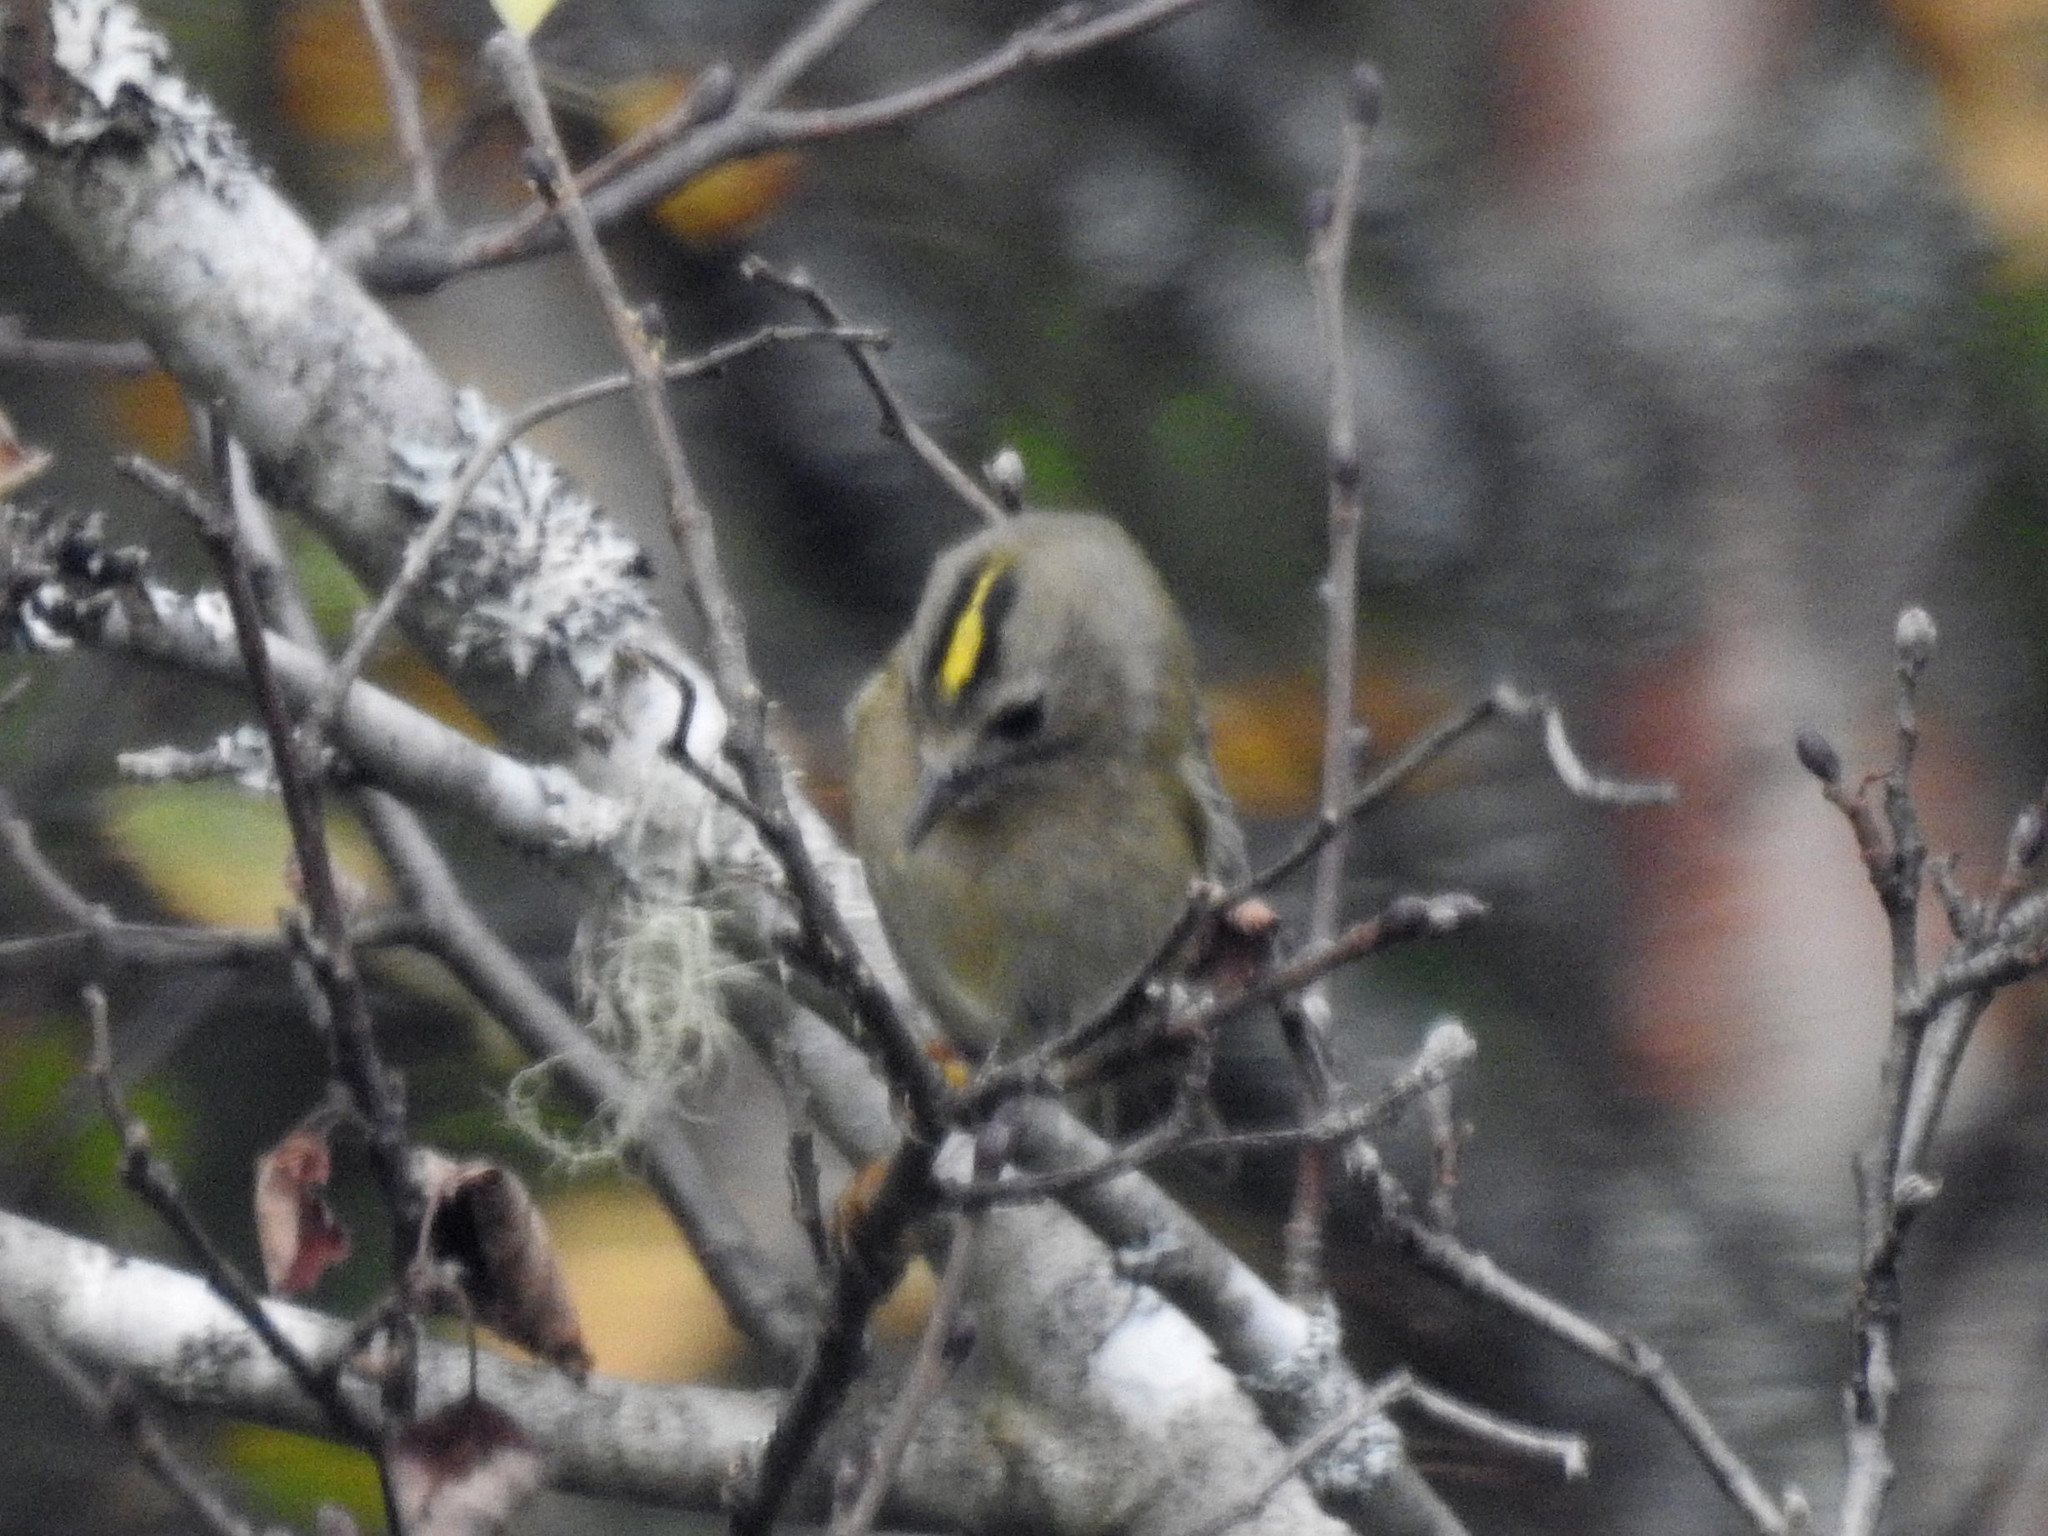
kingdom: Animalia
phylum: Chordata
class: Aves
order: Passeriformes
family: Regulidae
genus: Regulus
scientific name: Regulus regulus
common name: Goldcrest
